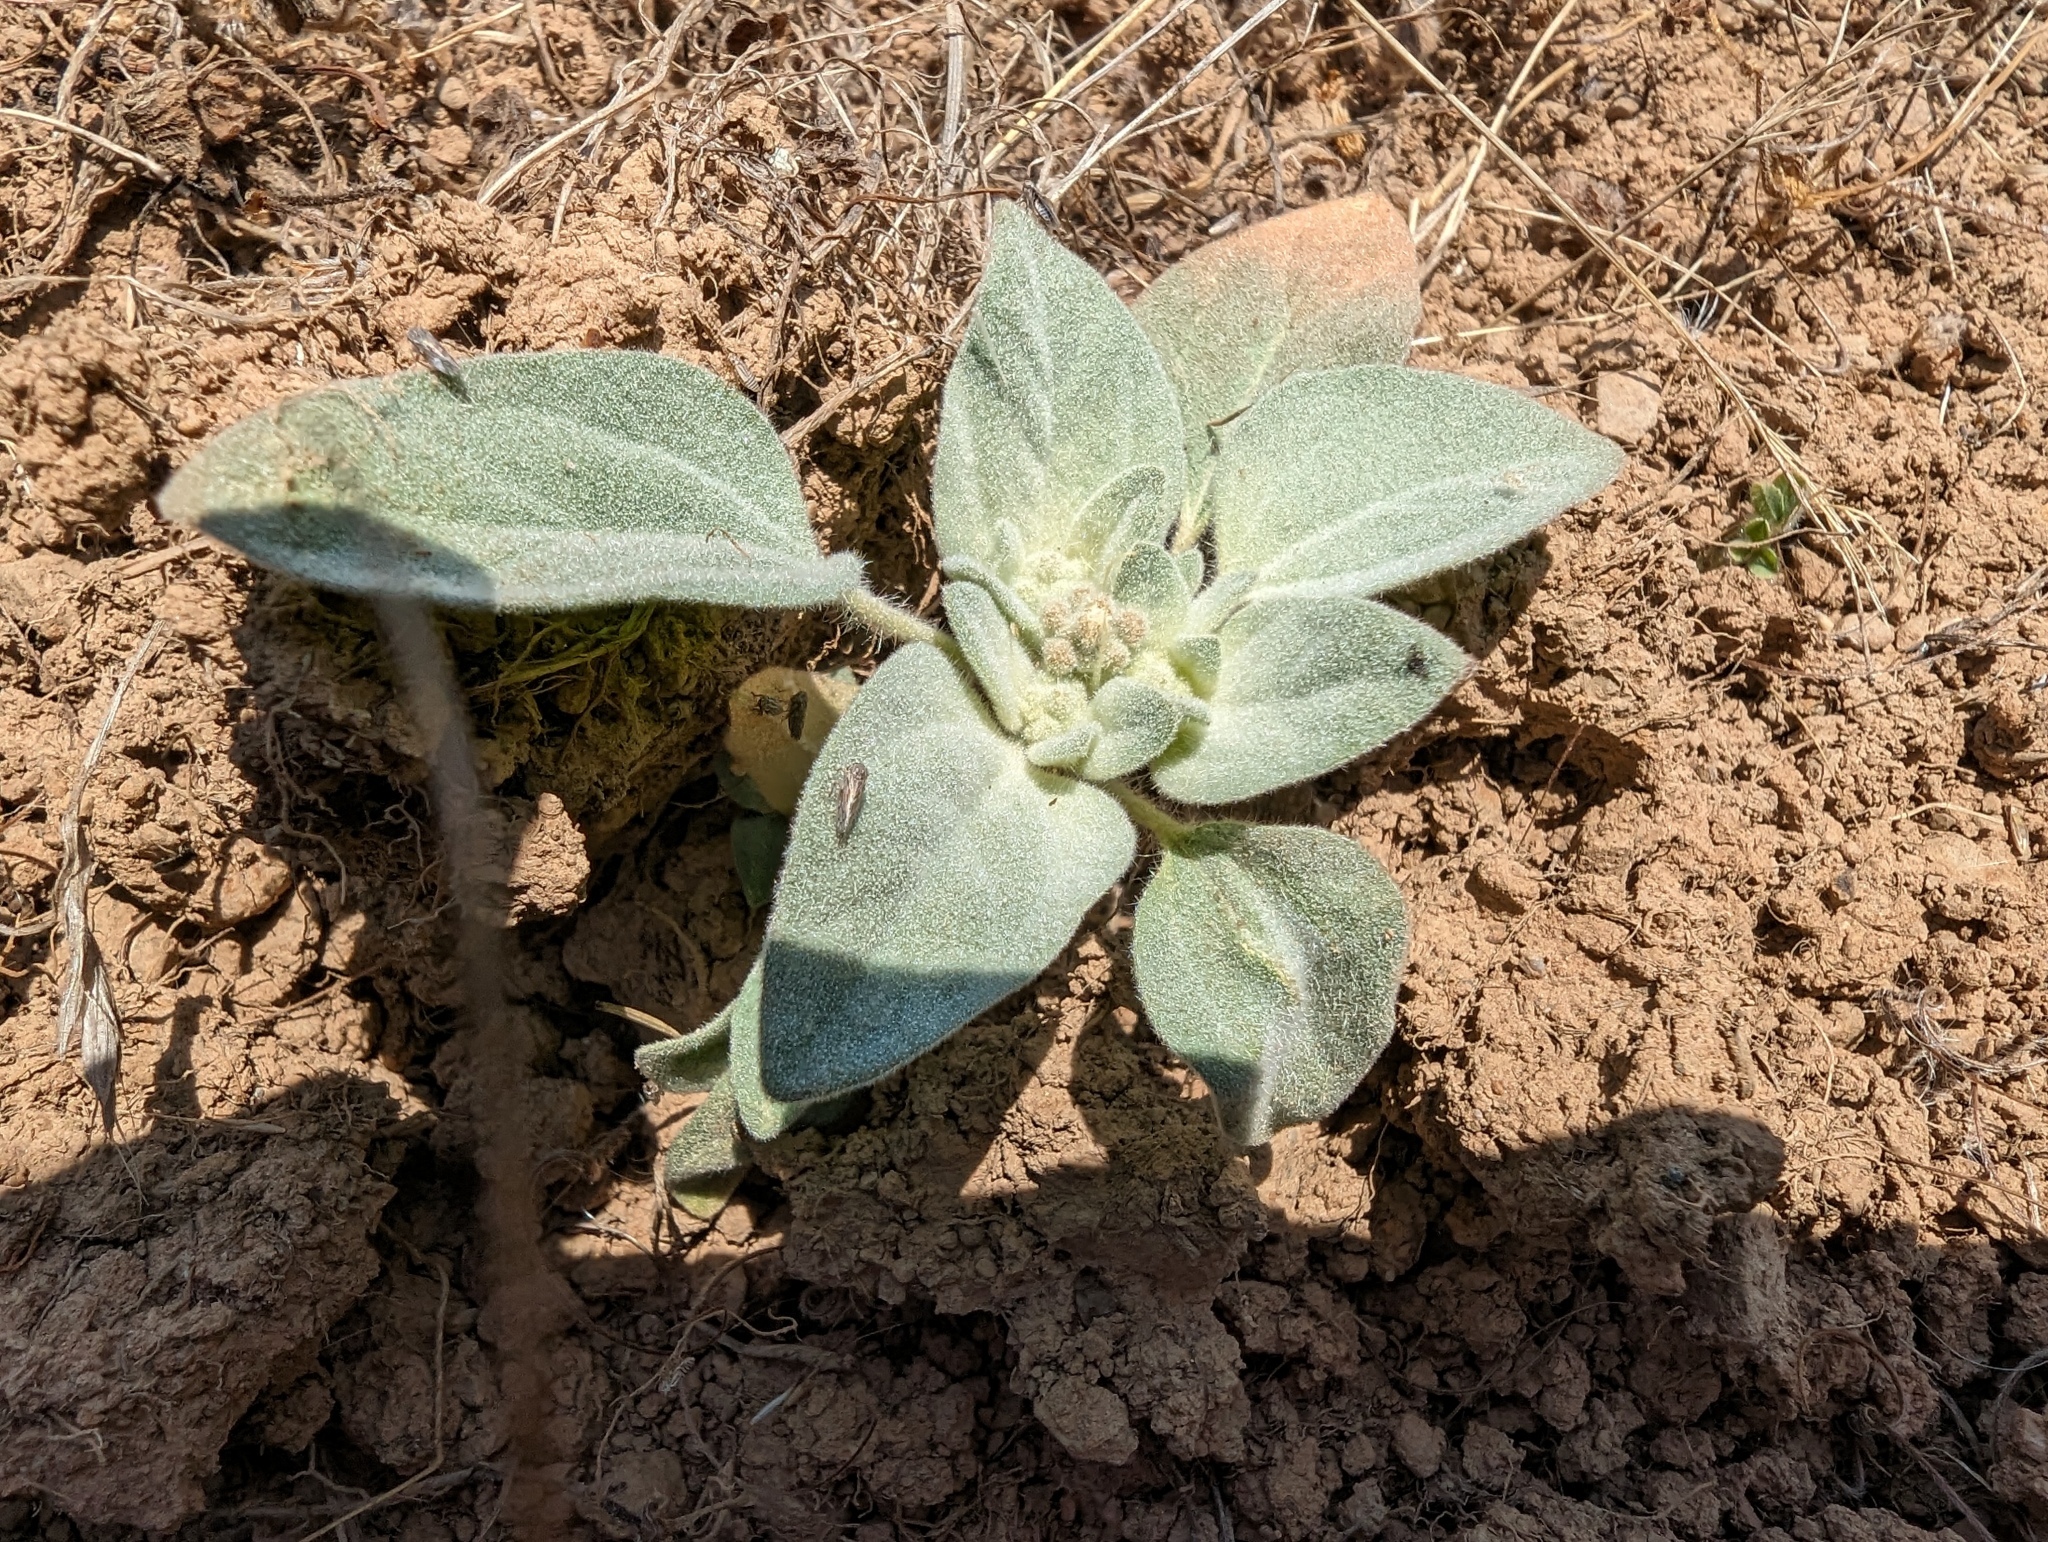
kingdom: Plantae
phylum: Tracheophyta
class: Magnoliopsida
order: Malpighiales
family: Euphorbiaceae
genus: Croton
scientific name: Croton setiger
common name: Dove weed
